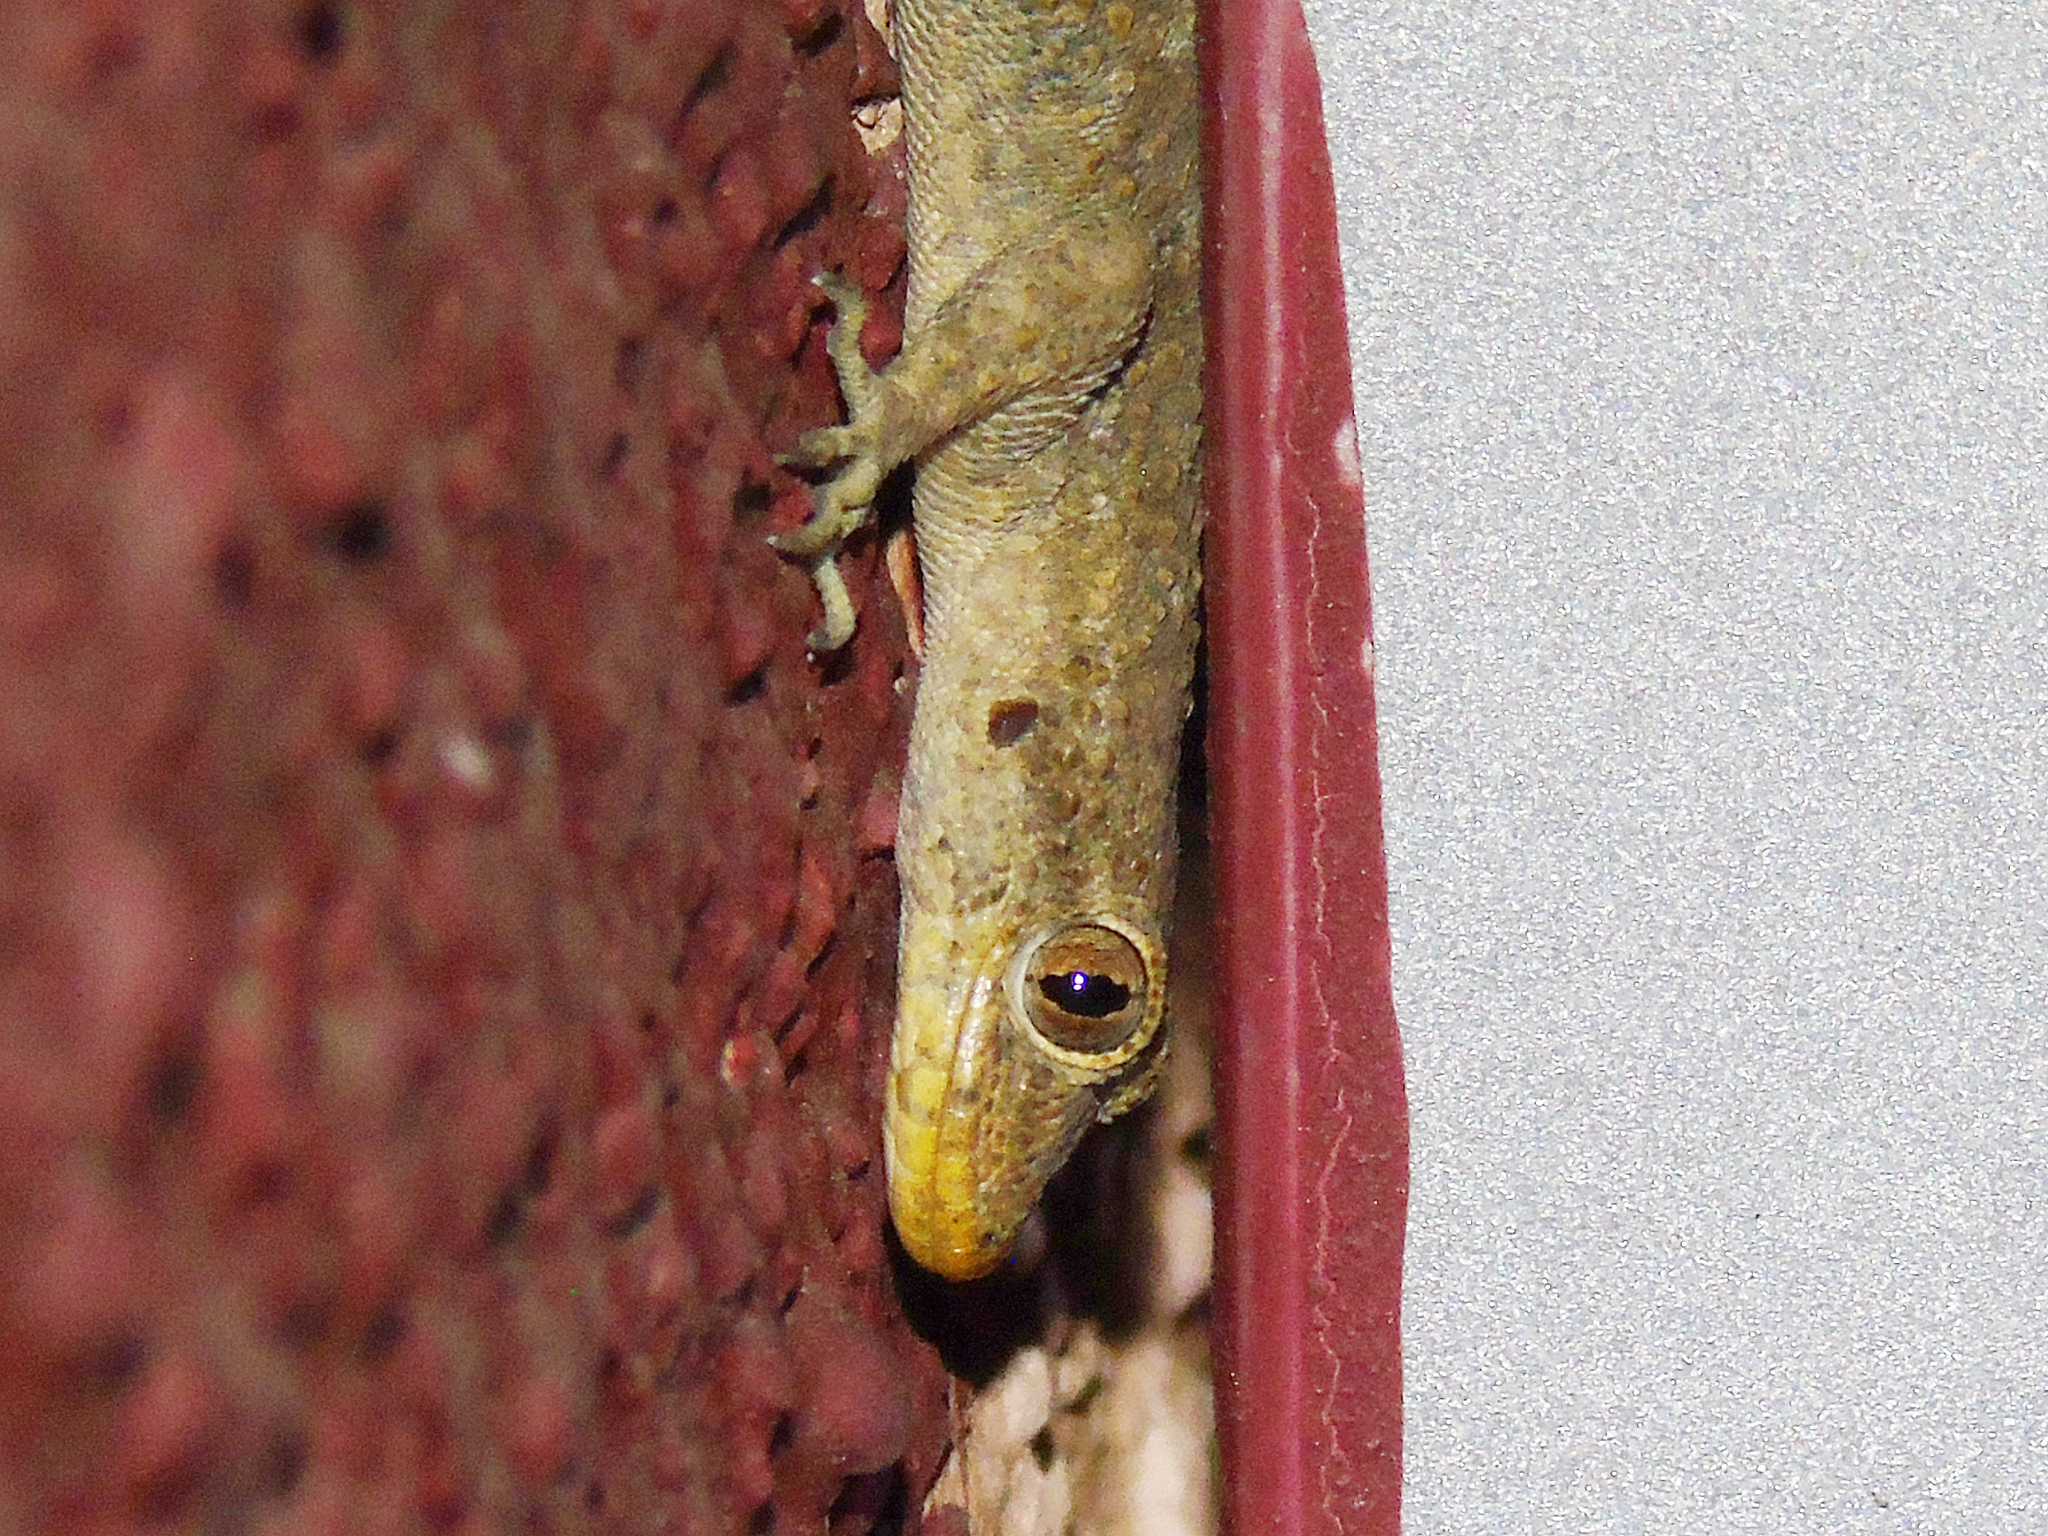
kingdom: Animalia
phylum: Chordata
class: Squamata
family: Gekkonidae
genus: Mediodactylus
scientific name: Mediodactylus kotschyi
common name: Kotschy's gecko
